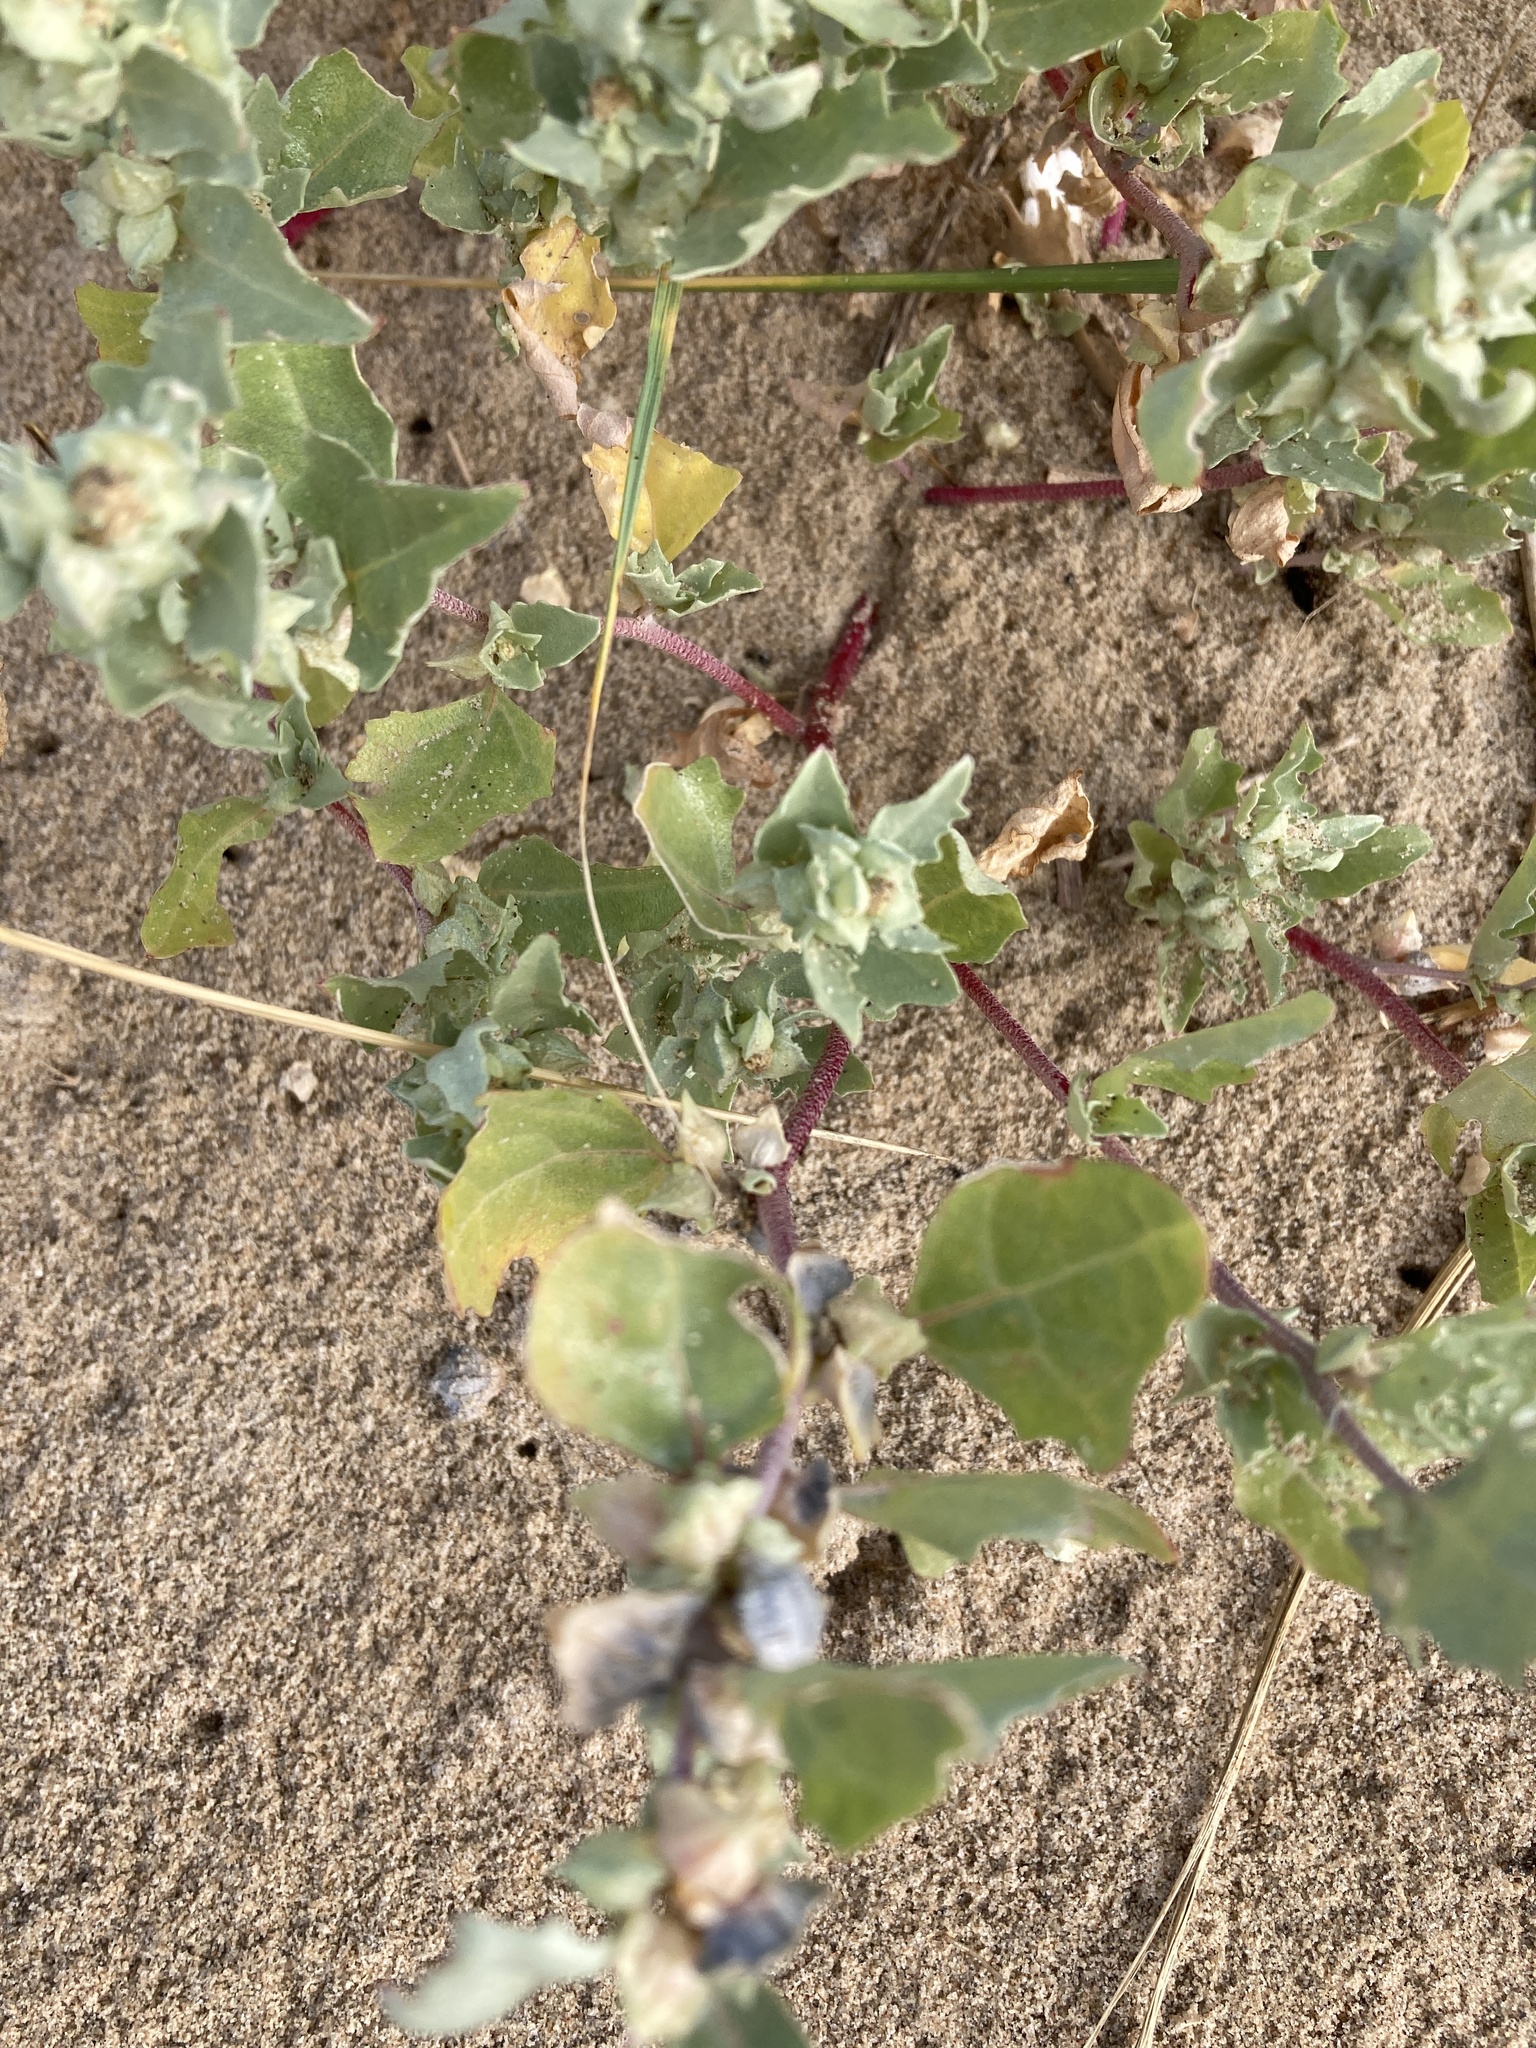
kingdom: Plantae
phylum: Tracheophyta
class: Magnoliopsida
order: Caryophyllales
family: Amaranthaceae
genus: Atriplex
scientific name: Atriplex laciniata
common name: Frosted orache
